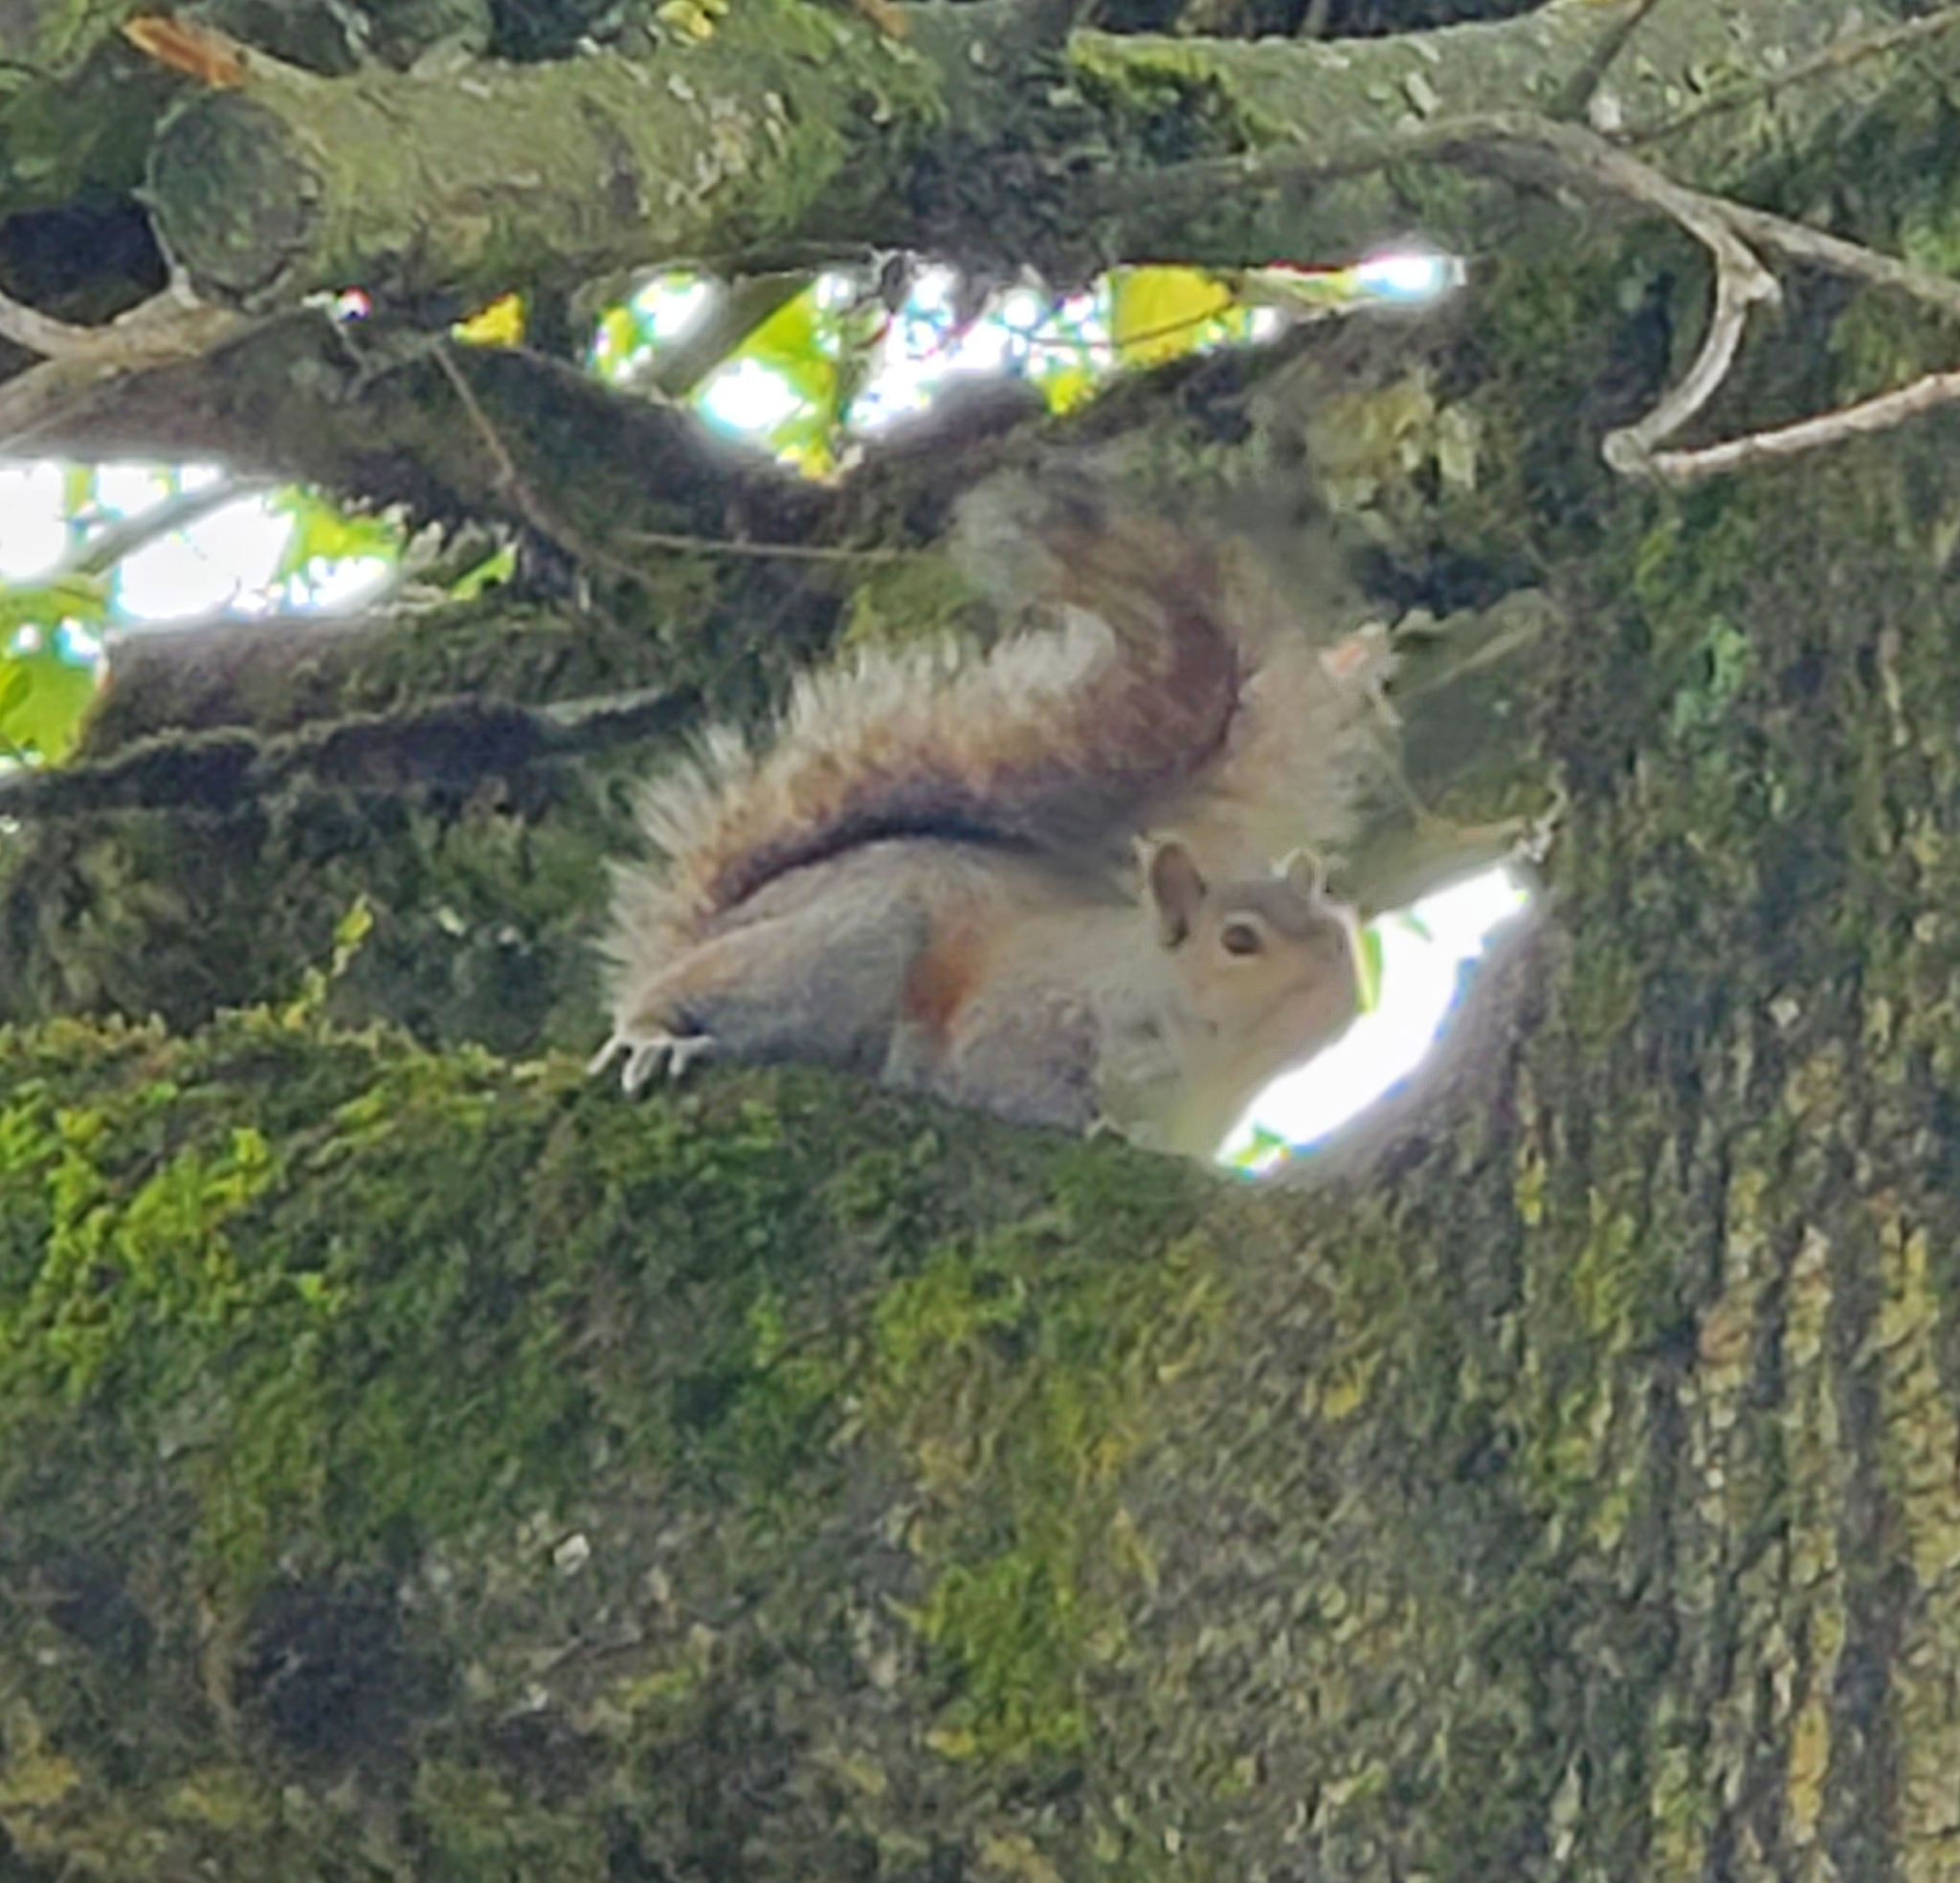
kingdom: Animalia
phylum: Chordata
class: Mammalia
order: Rodentia
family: Sciuridae
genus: Sciurus
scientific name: Sciurus carolinensis
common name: Eastern gray squirrel
